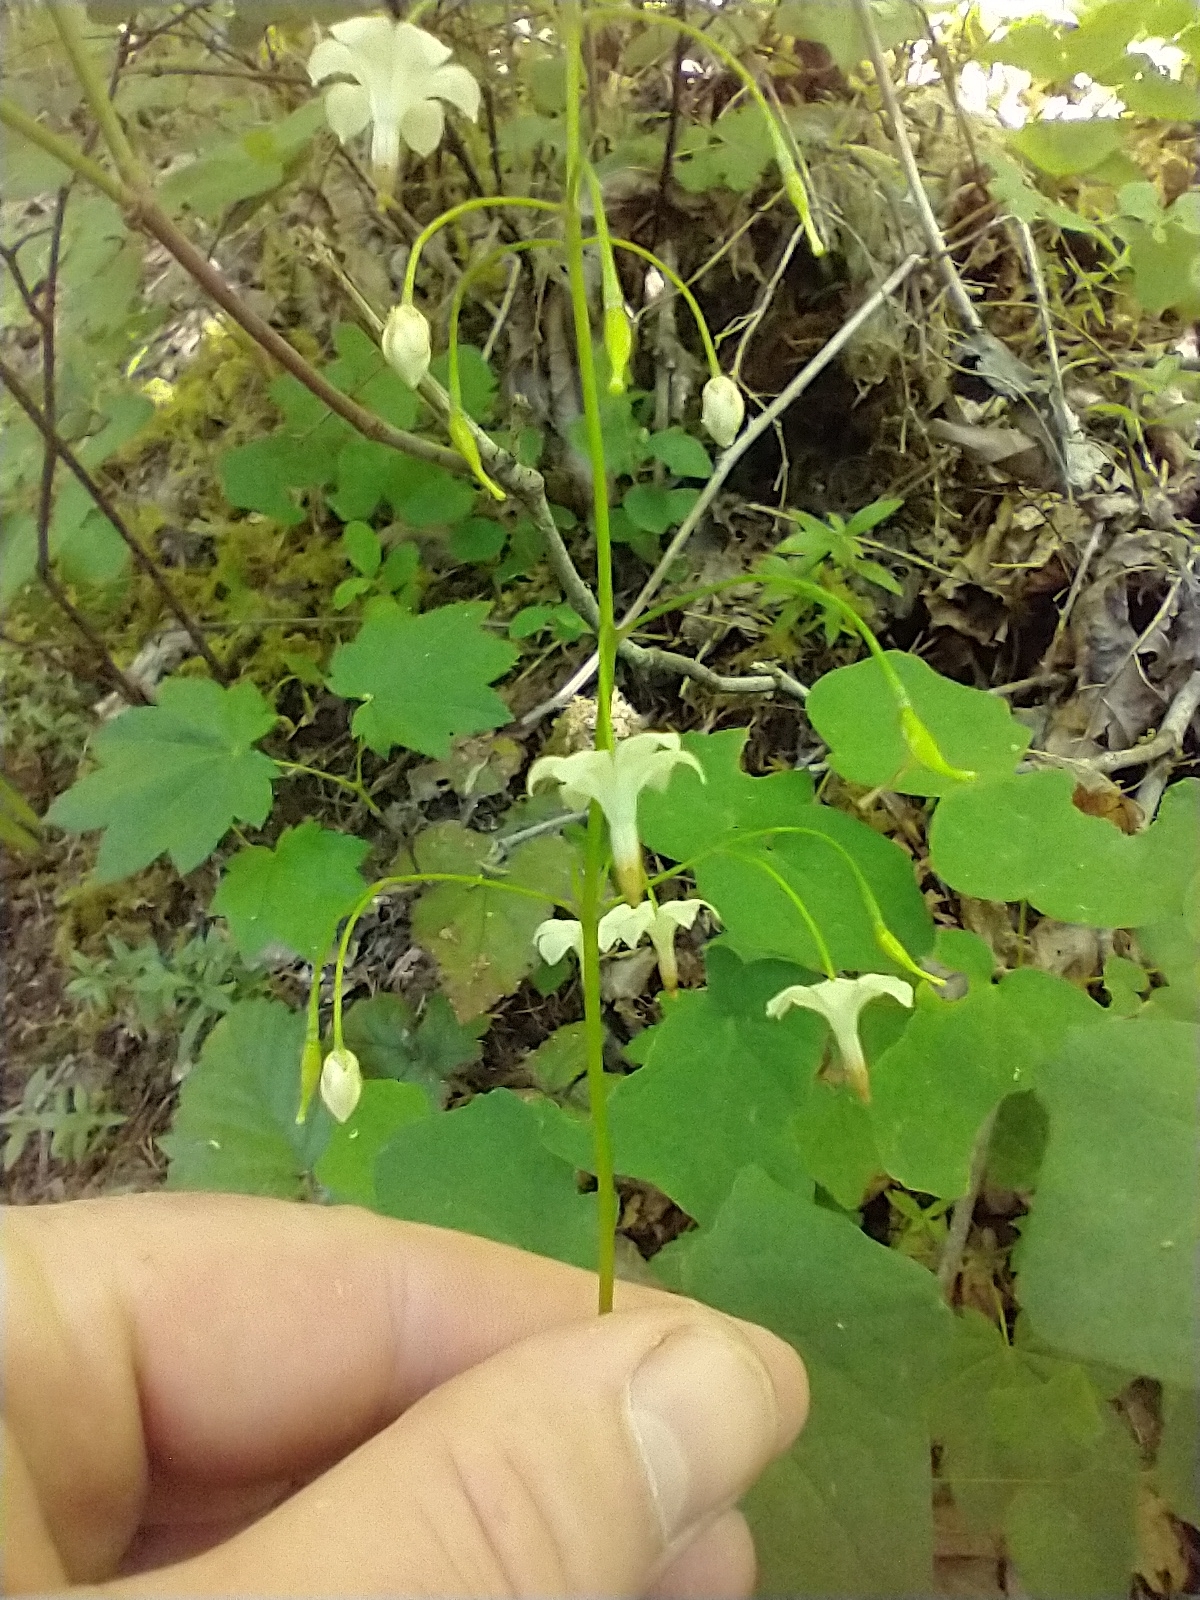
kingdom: Plantae
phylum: Tracheophyta
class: Magnoliopsida
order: Ranunculales
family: Berberidaceae
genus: Vancouveria
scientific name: Vancouveria hexandra
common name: Northern inside-out-flower
